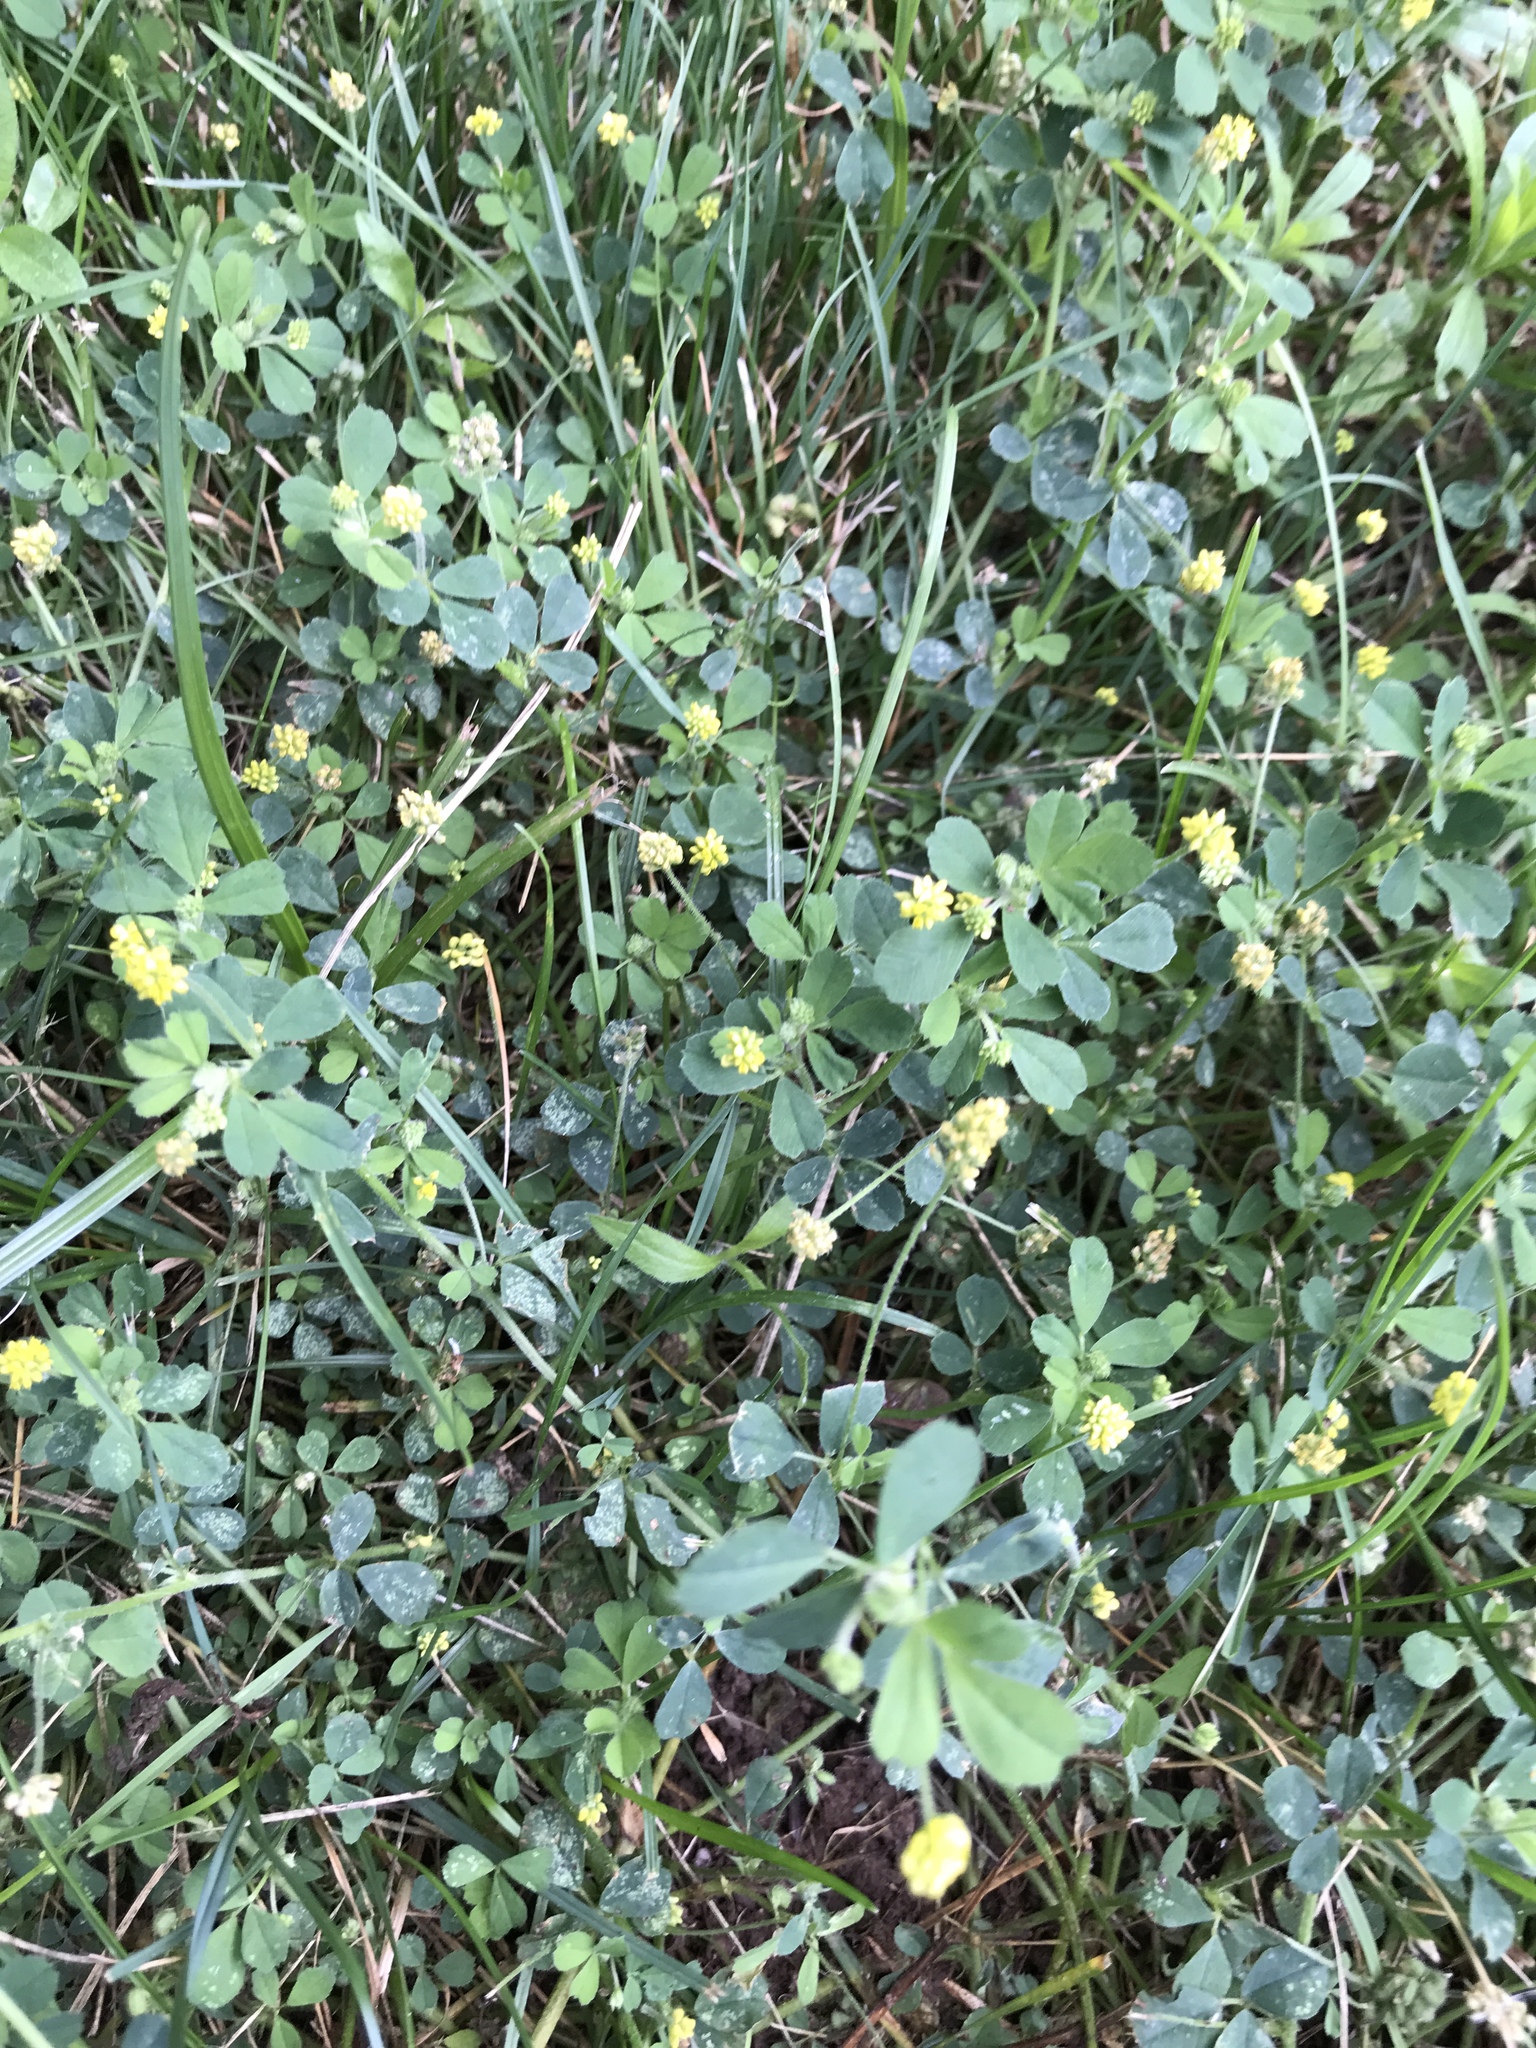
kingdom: Plantae
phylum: Tracheophyta
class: Magnoliopsida
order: Fabales
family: Fabaceae
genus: Medicago
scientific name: Medicago lupulina
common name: Black medick
